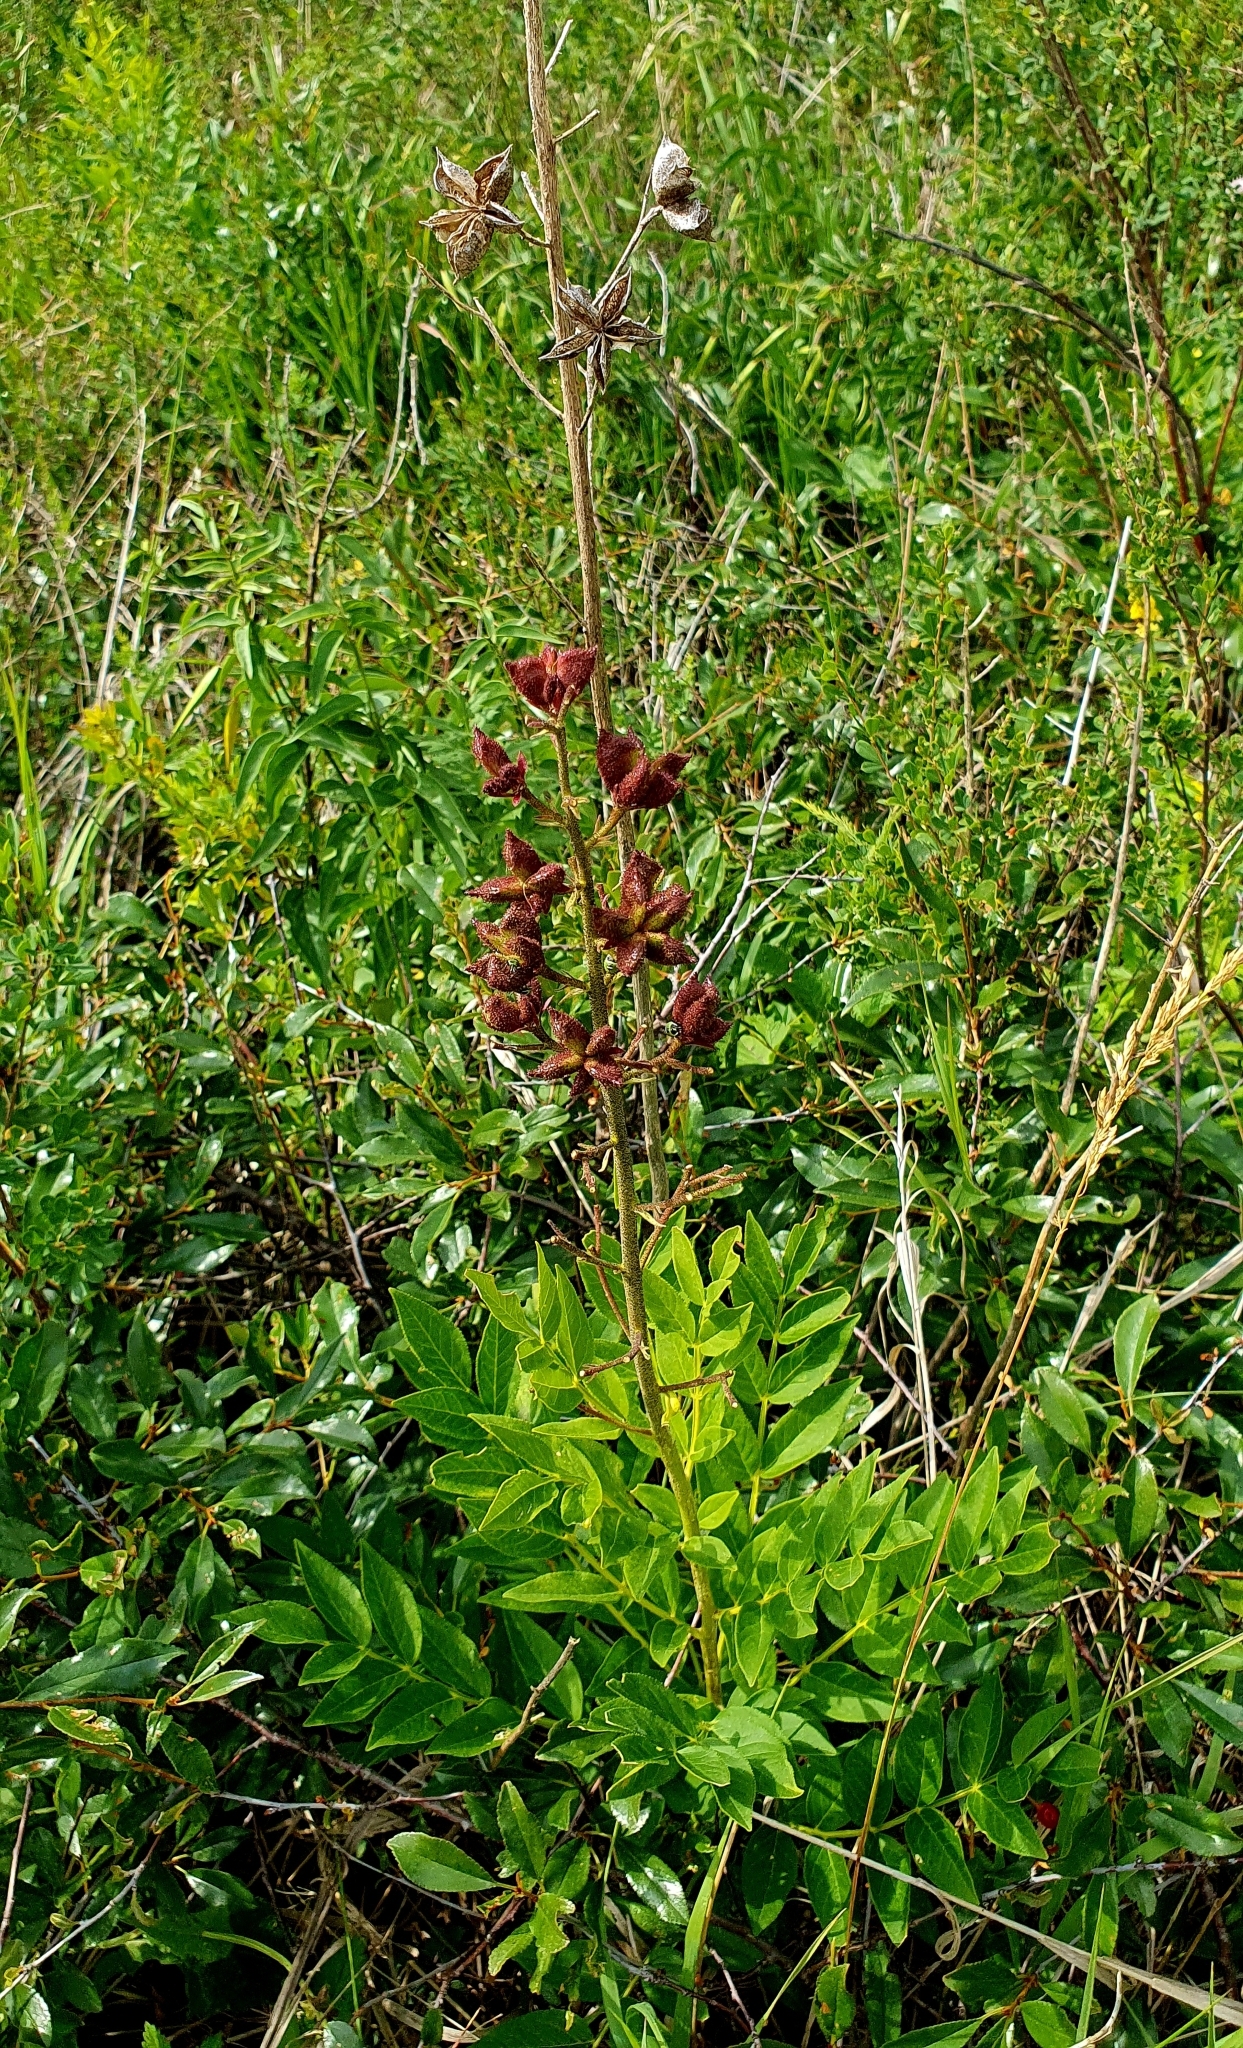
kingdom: Plantae
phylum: Tracheophyta
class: Magnoliopsida
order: Sapindales
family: Rutaceae
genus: Dictamnus
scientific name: Dictamnus albus
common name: Gasplant
